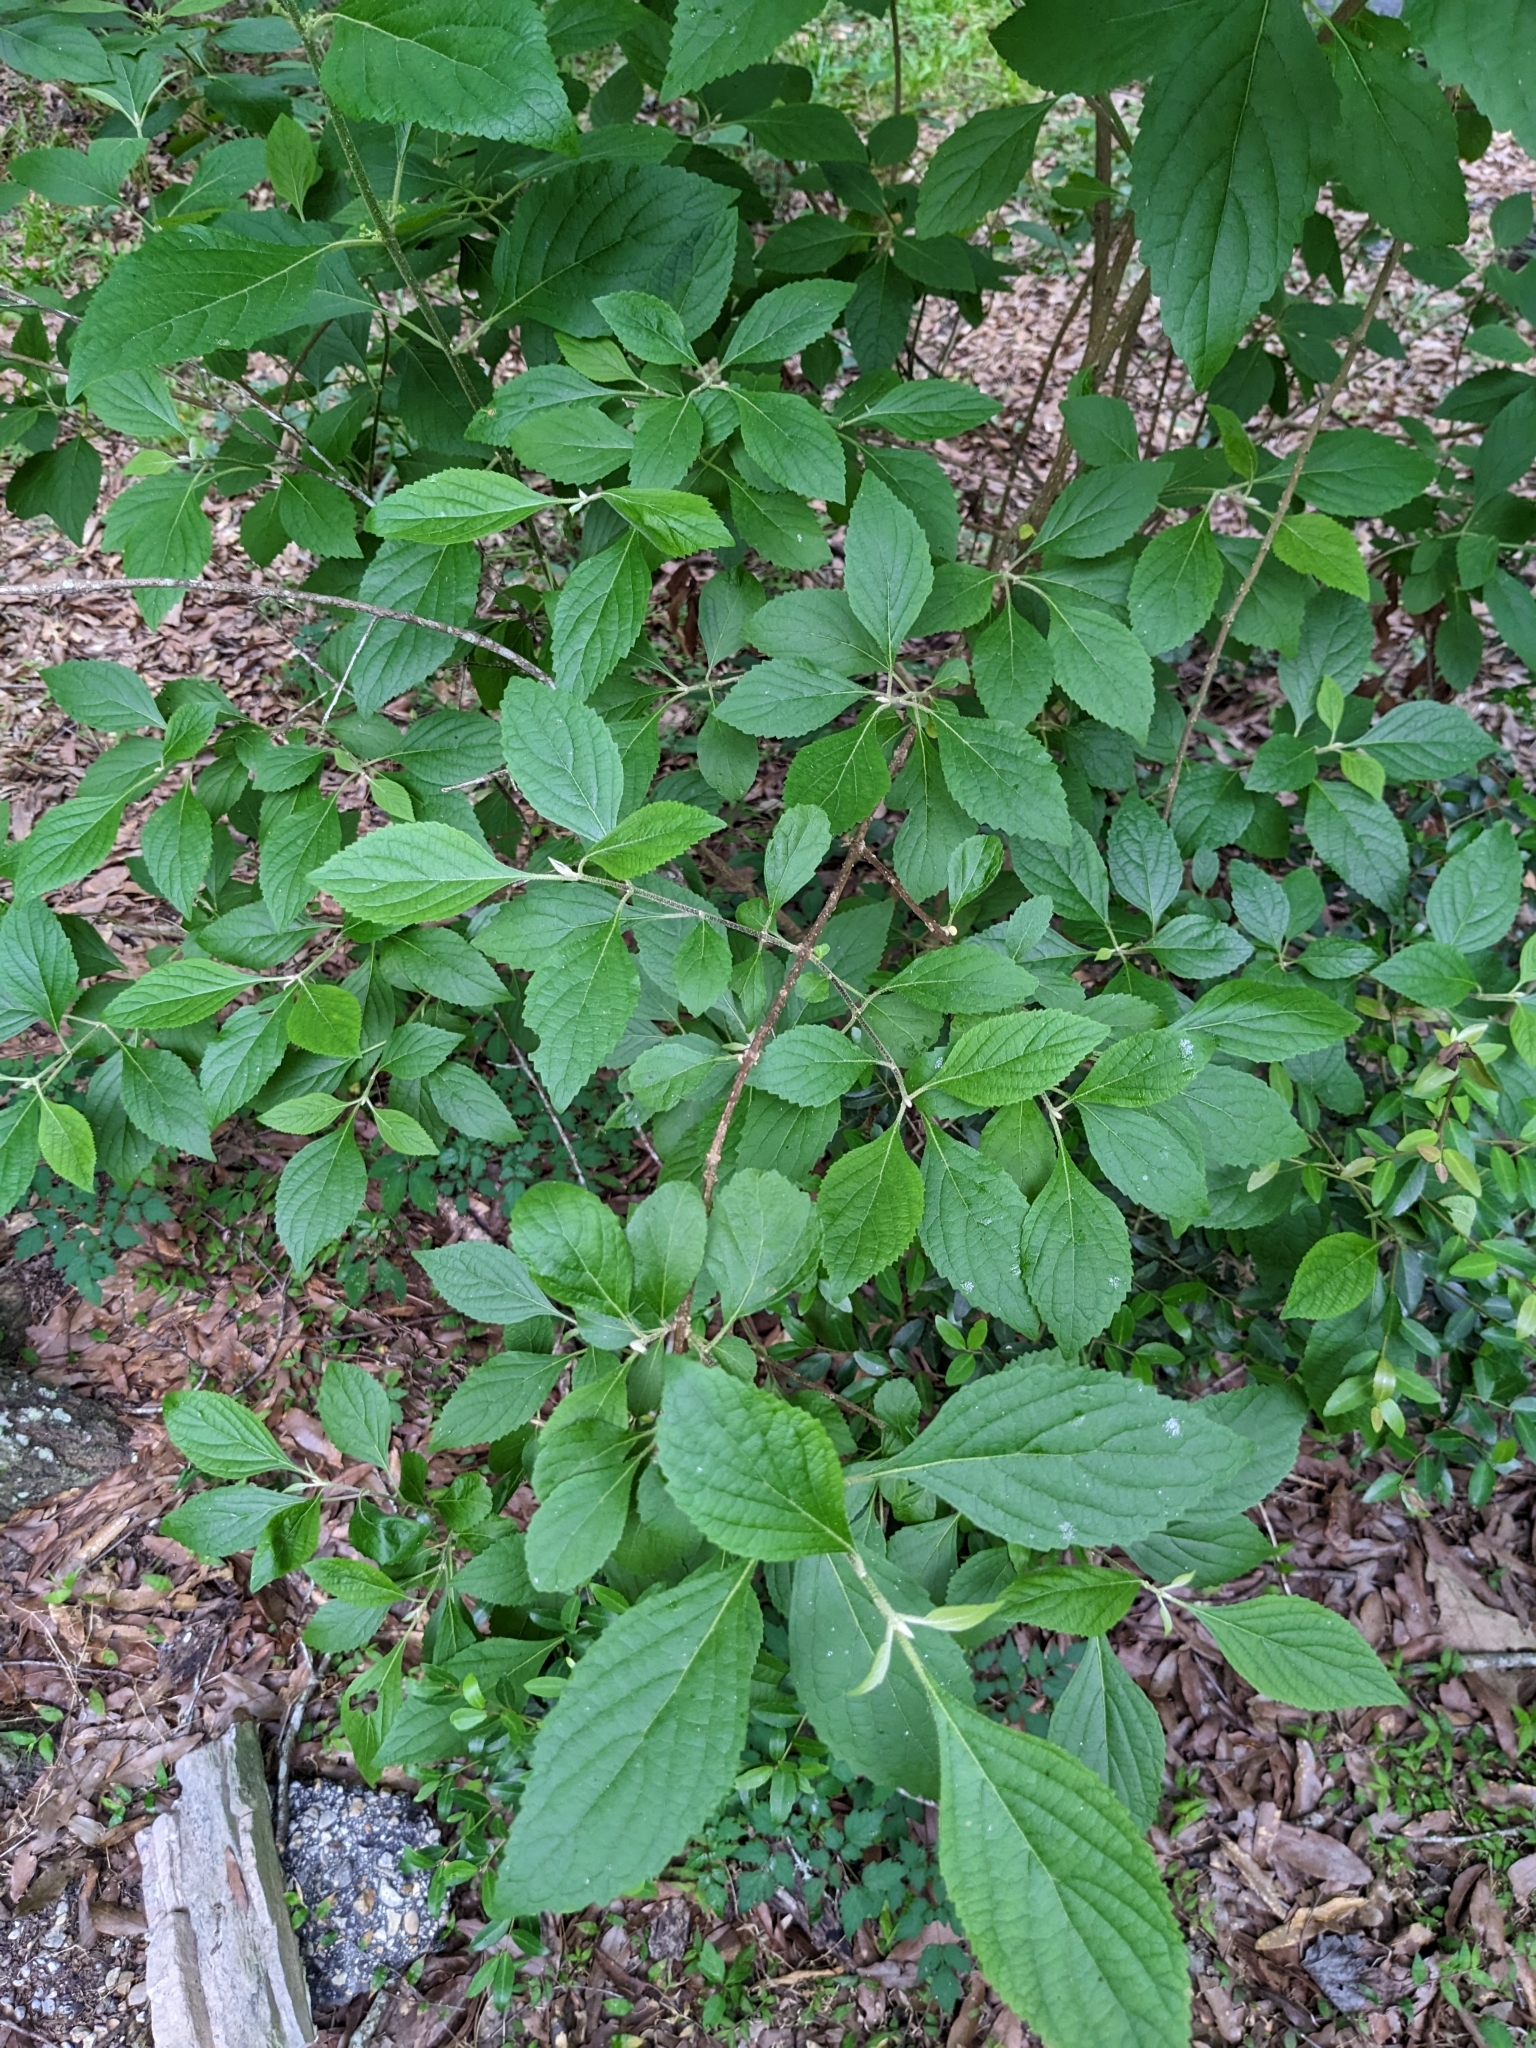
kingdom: Plantae
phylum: Tracheophyta
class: Magnoliopsida
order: Lamiales
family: Lamiaceae
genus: Callicarpa
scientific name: Callicarpa americana
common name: American beautyberry
